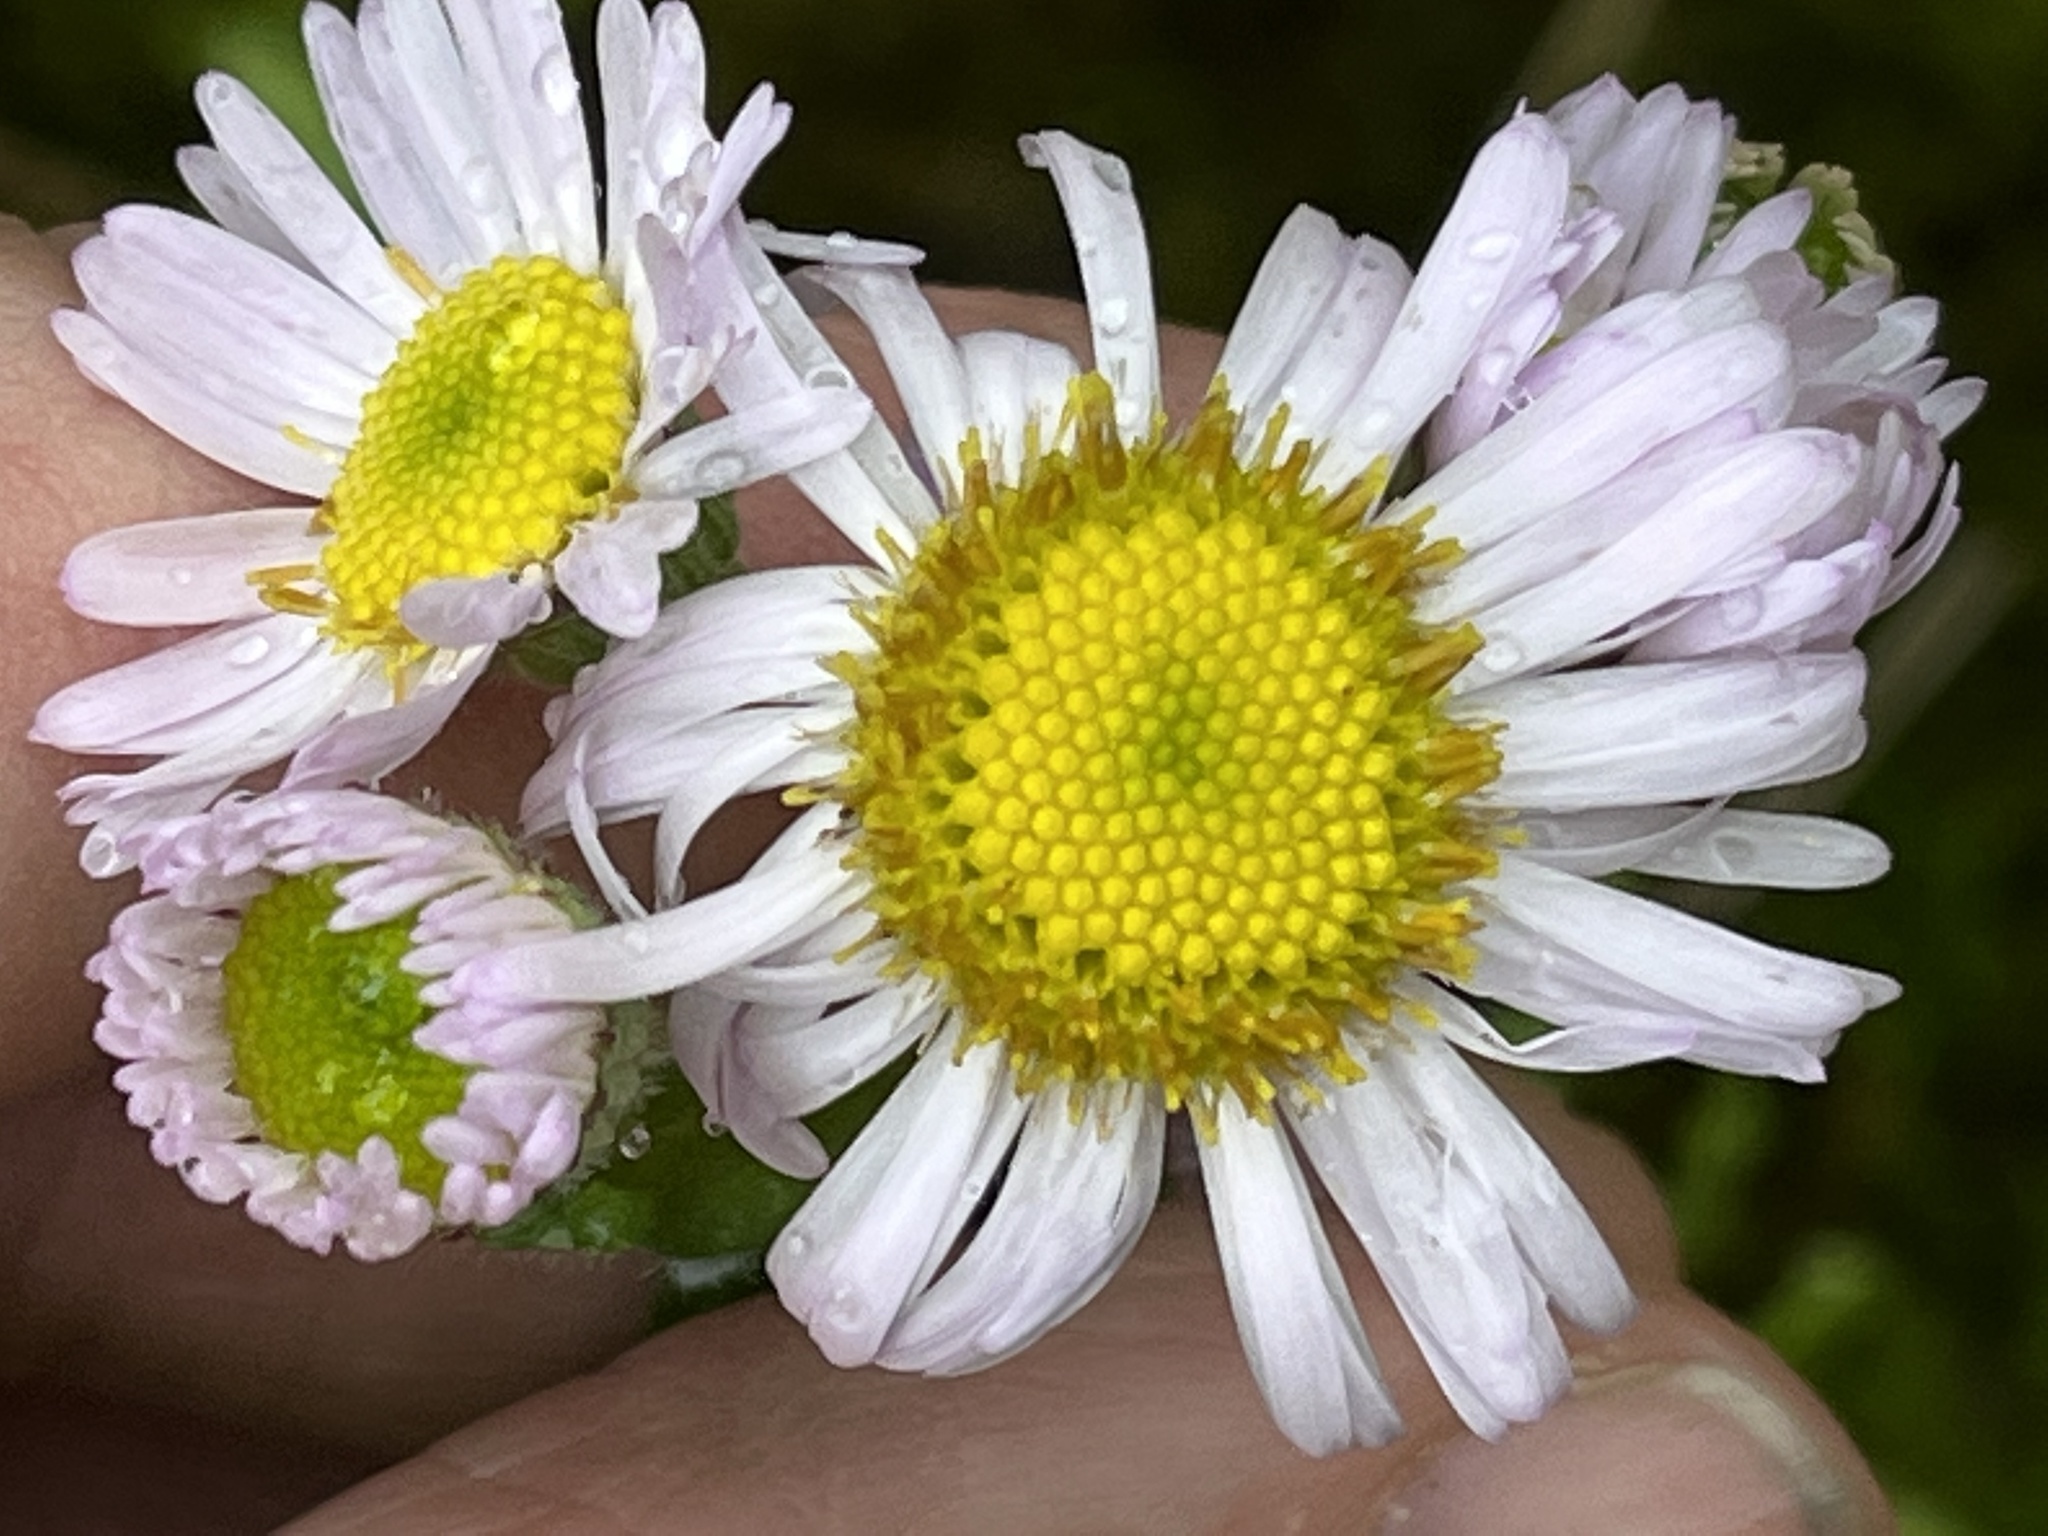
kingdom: Plantae
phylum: Tracheophyta
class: Magnoliopsida
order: Asterales
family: Asteraceae
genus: Erigeron
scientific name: Erigeron pulchellus
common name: Hairy fleabane
